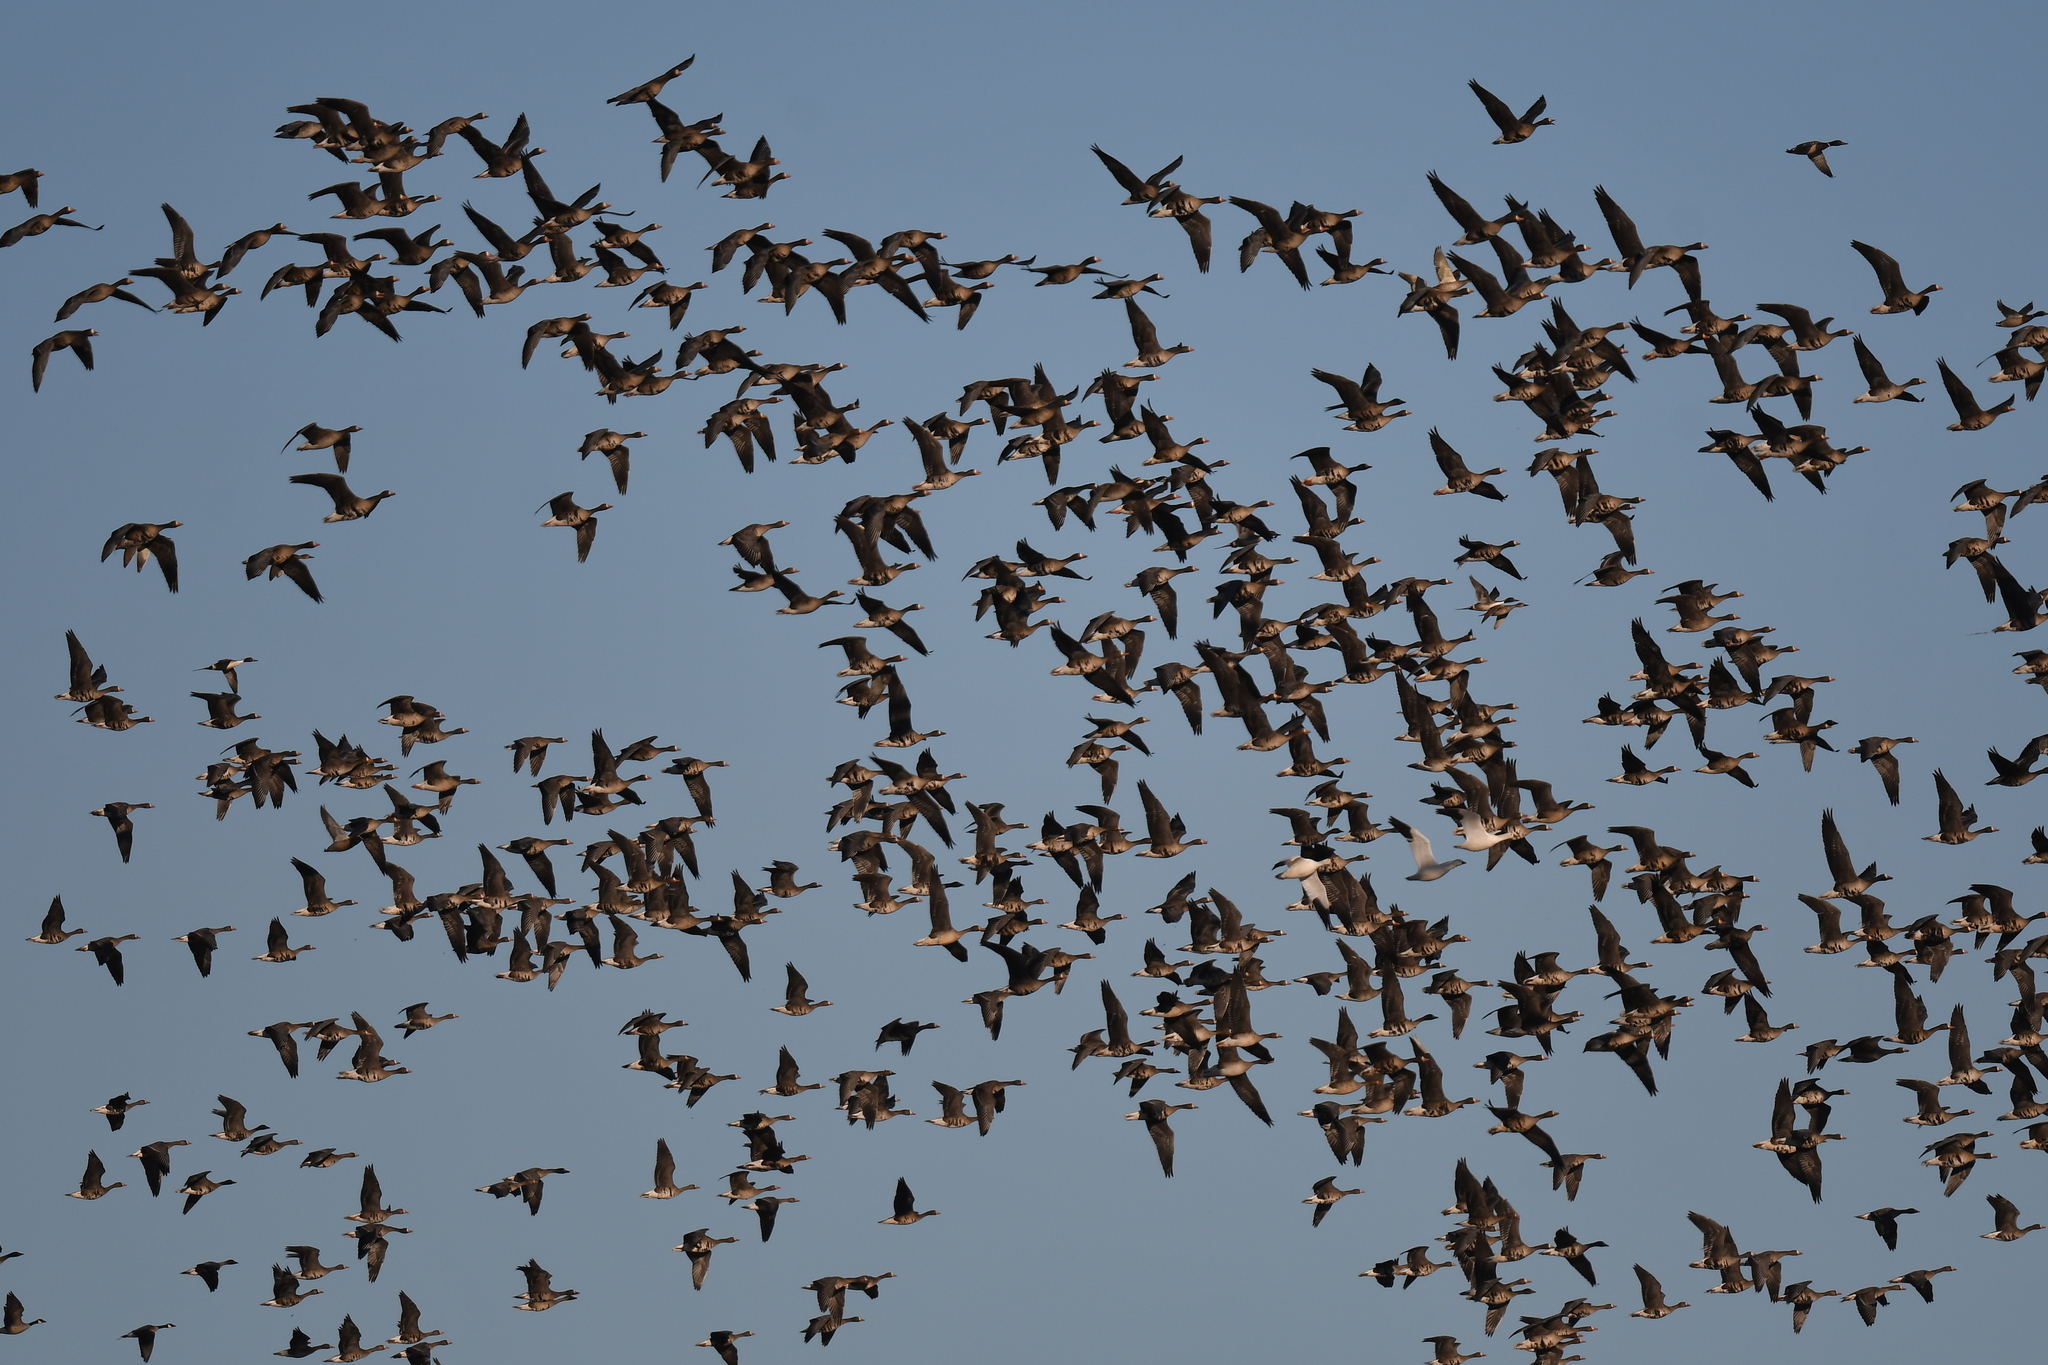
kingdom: Animalia
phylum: Chordata
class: Aves
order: Anseriformes
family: Anatidae
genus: Anser
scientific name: Anser albifrons
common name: Greater white-fronted goose
